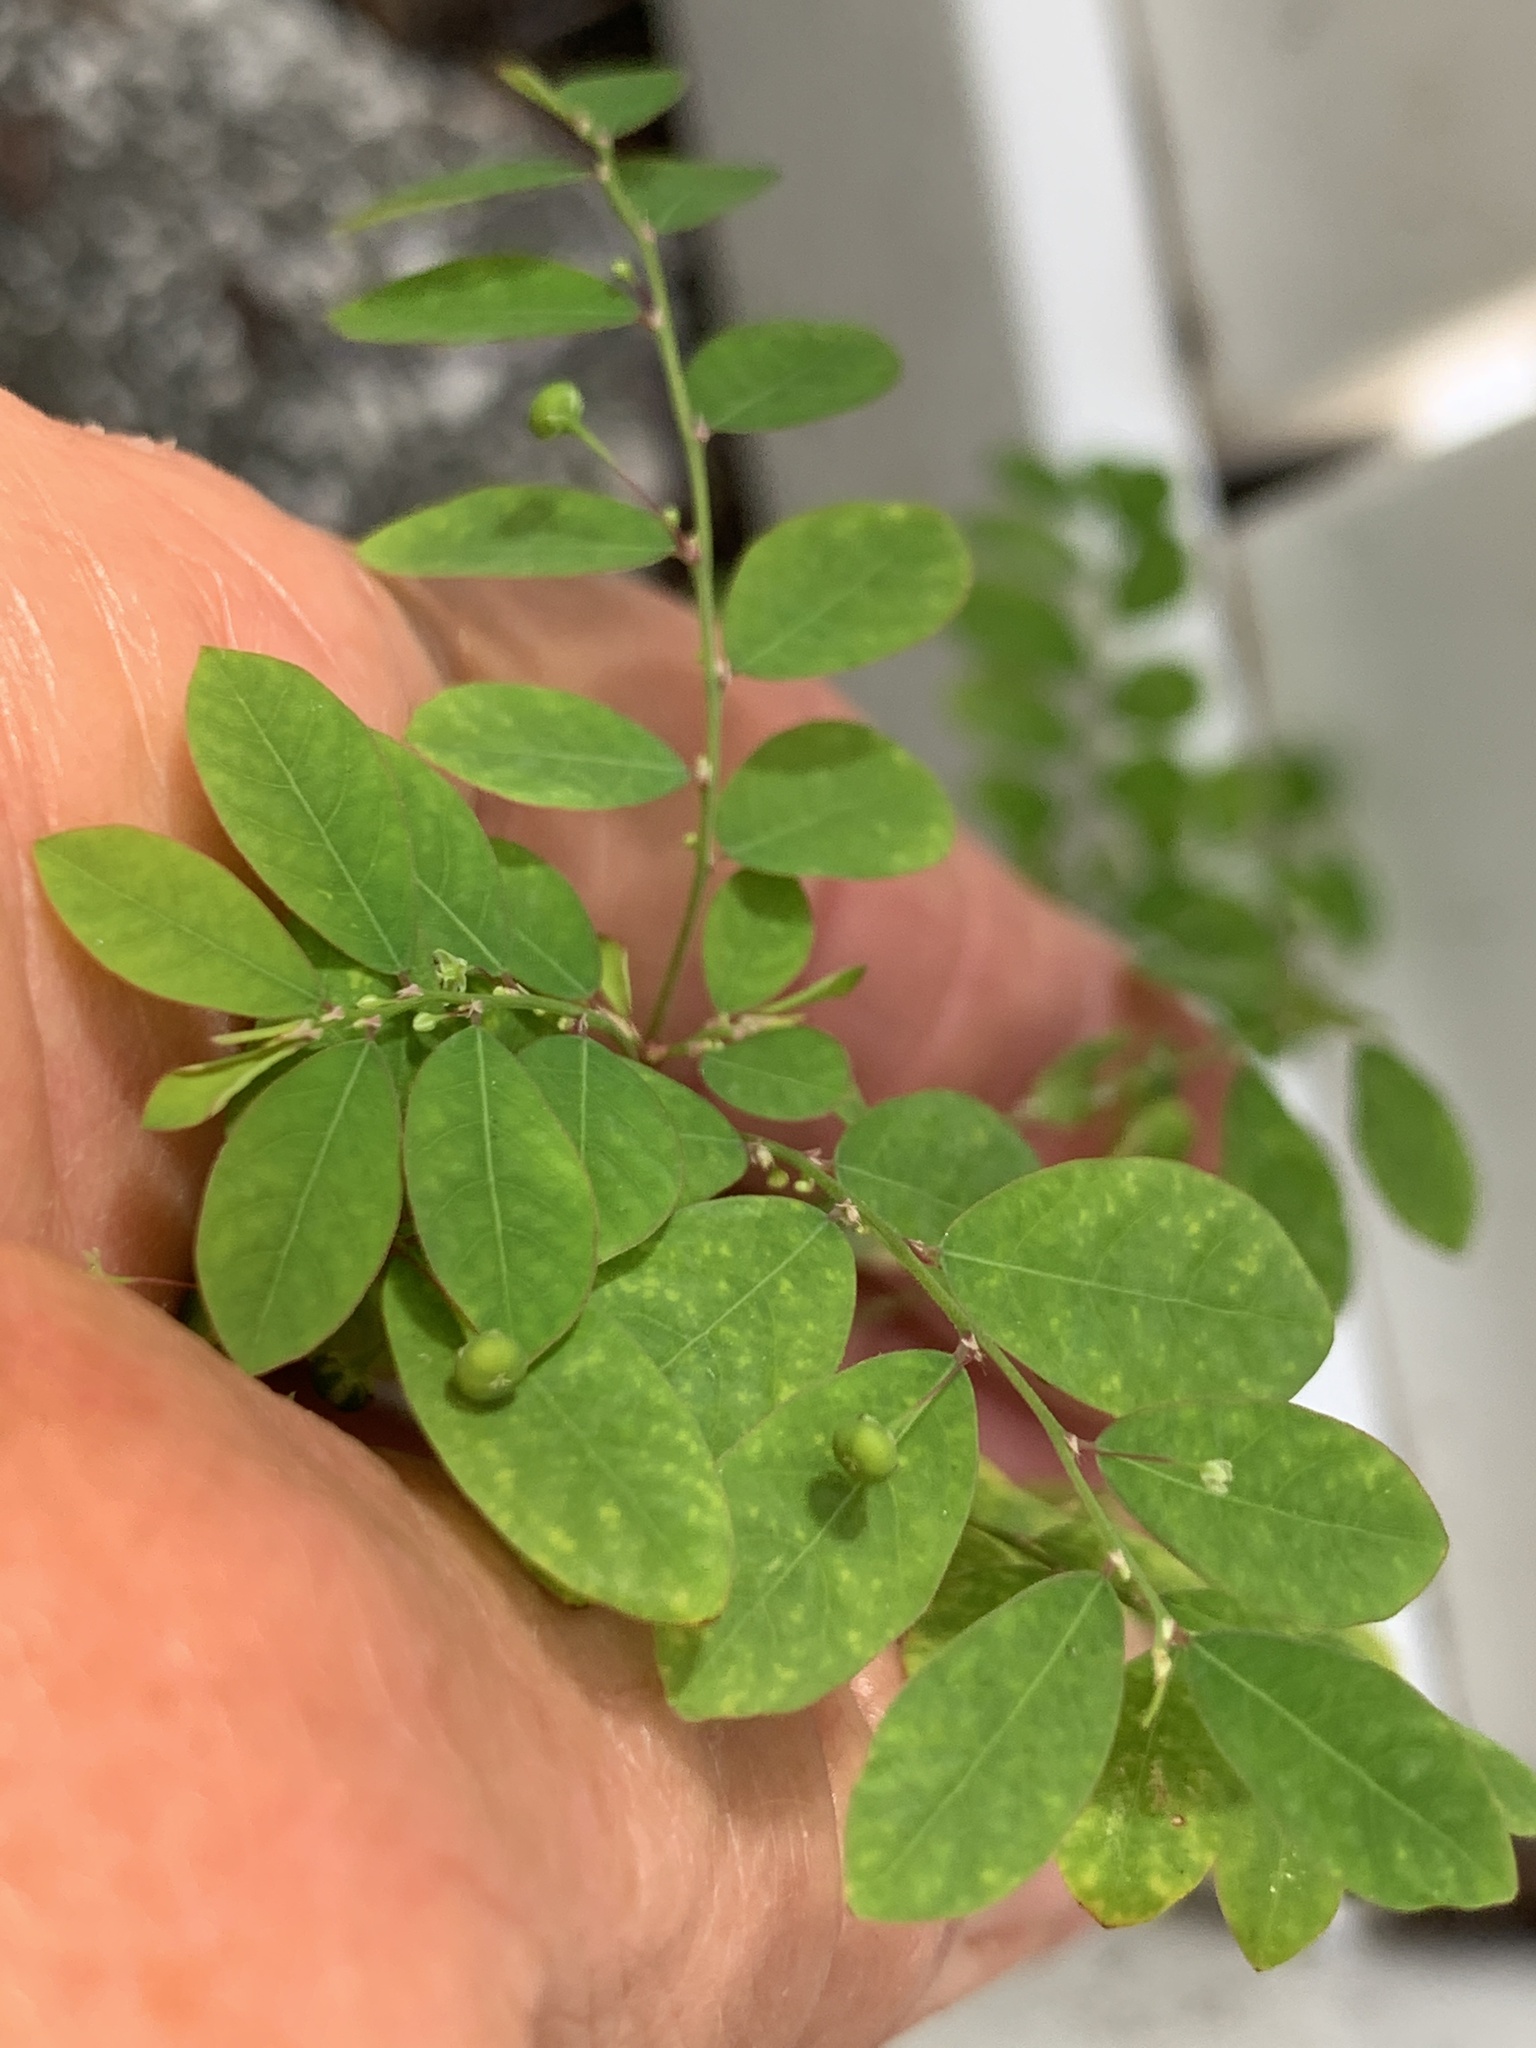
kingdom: Plantae
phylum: Tracheophyta
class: Magnoliopsida
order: Malpighiales
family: Phyllanthaceae
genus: Phyllanthus
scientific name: Phyllanthus tenellus
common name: Mascarene island leaf-flower
